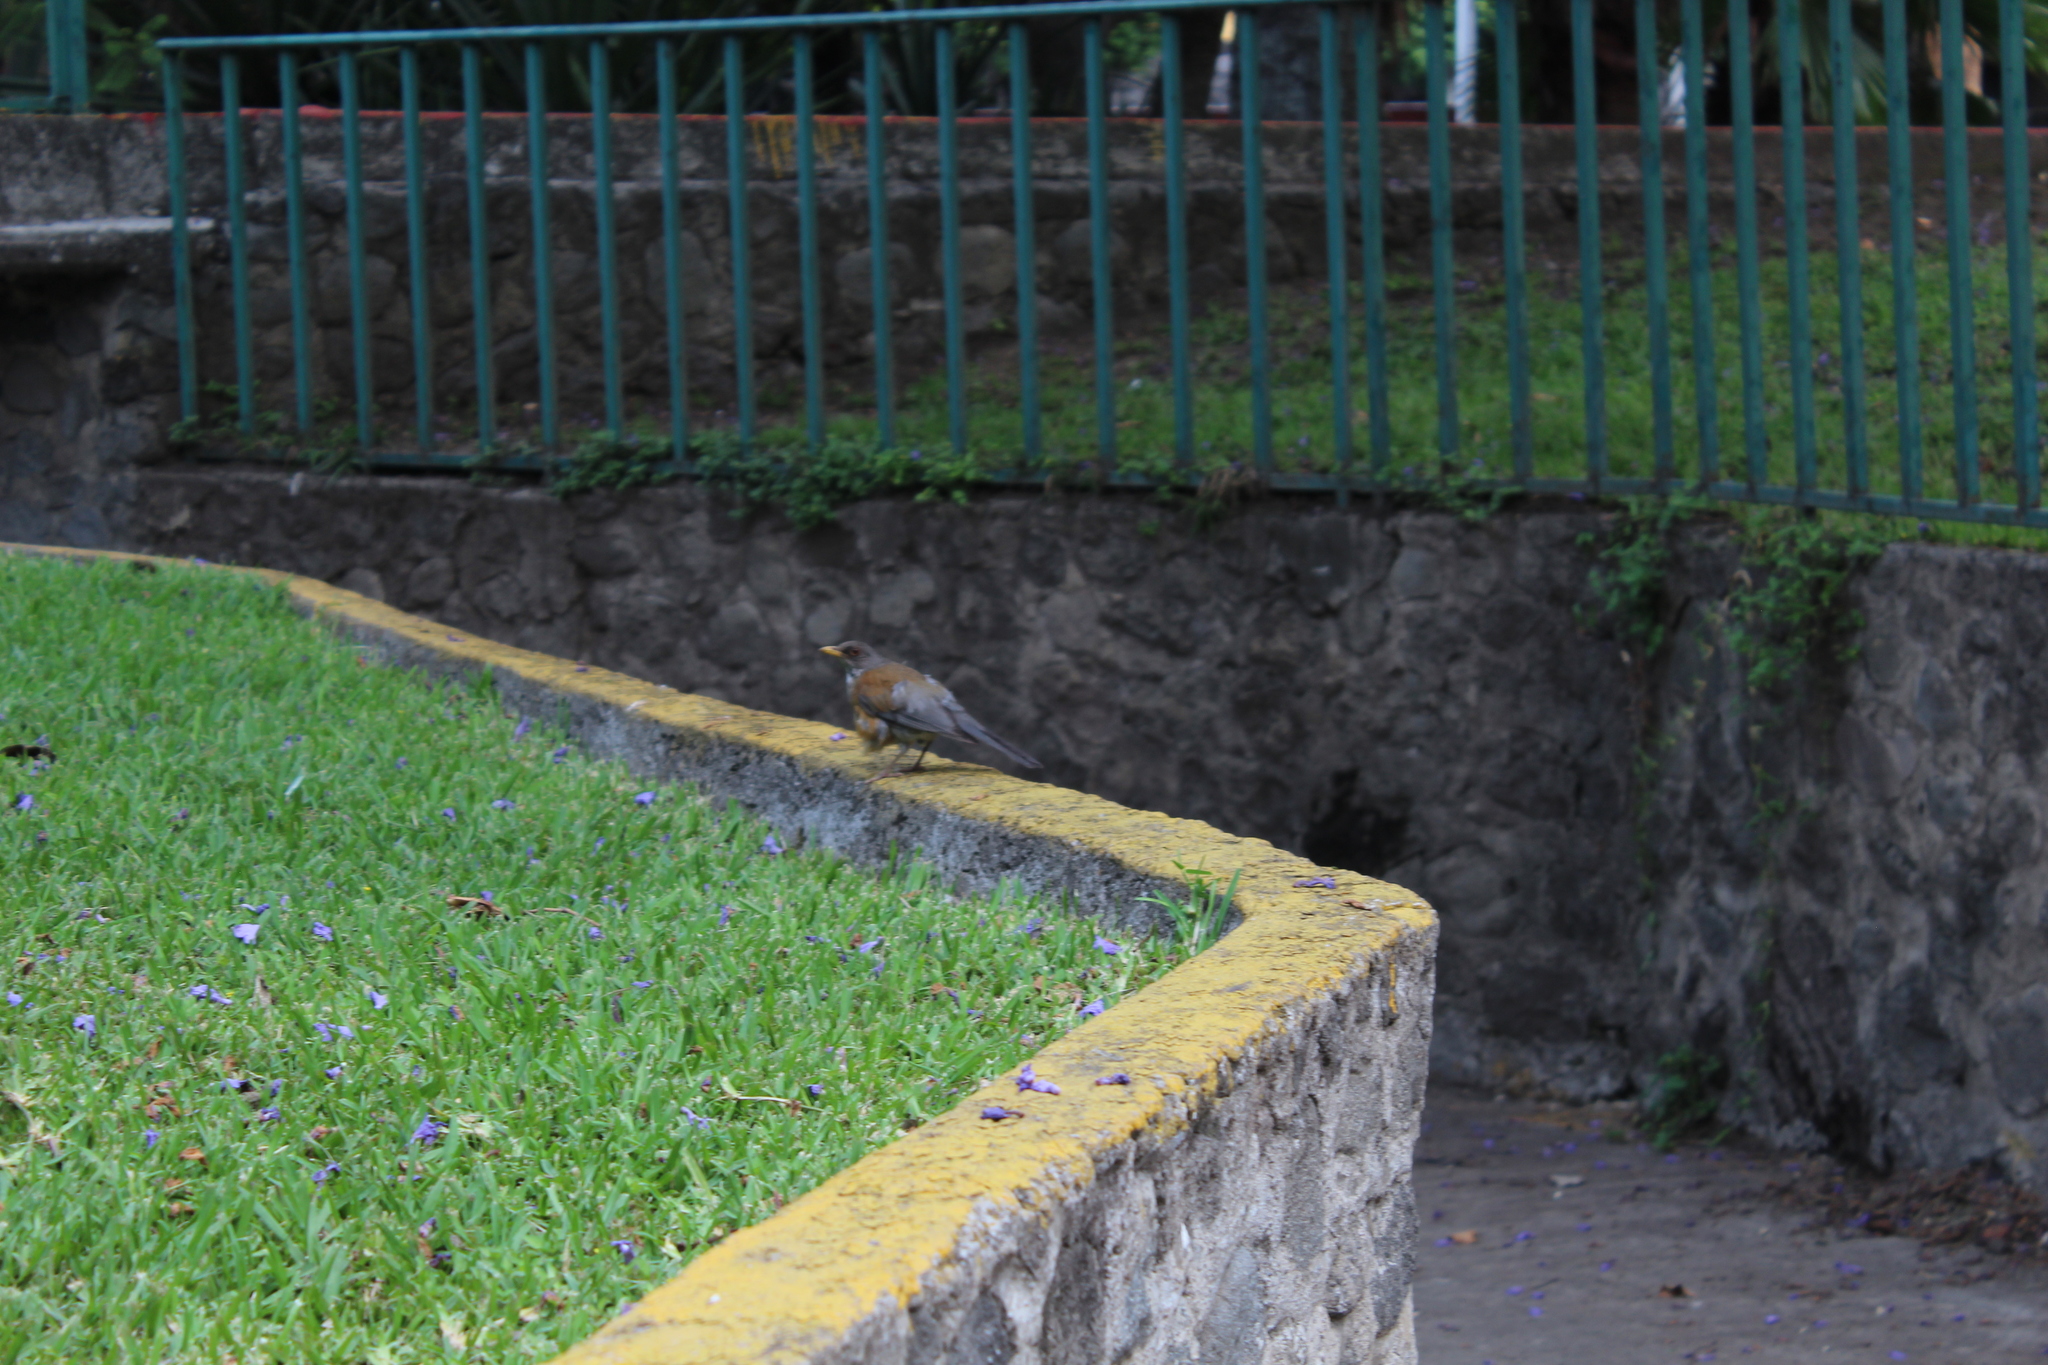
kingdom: Animalia
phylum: Chordata
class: Aves
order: Passeriformes
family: Turdidae
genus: Turdus
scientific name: Turdus rufopalliatus
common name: Rufous-backed robin
